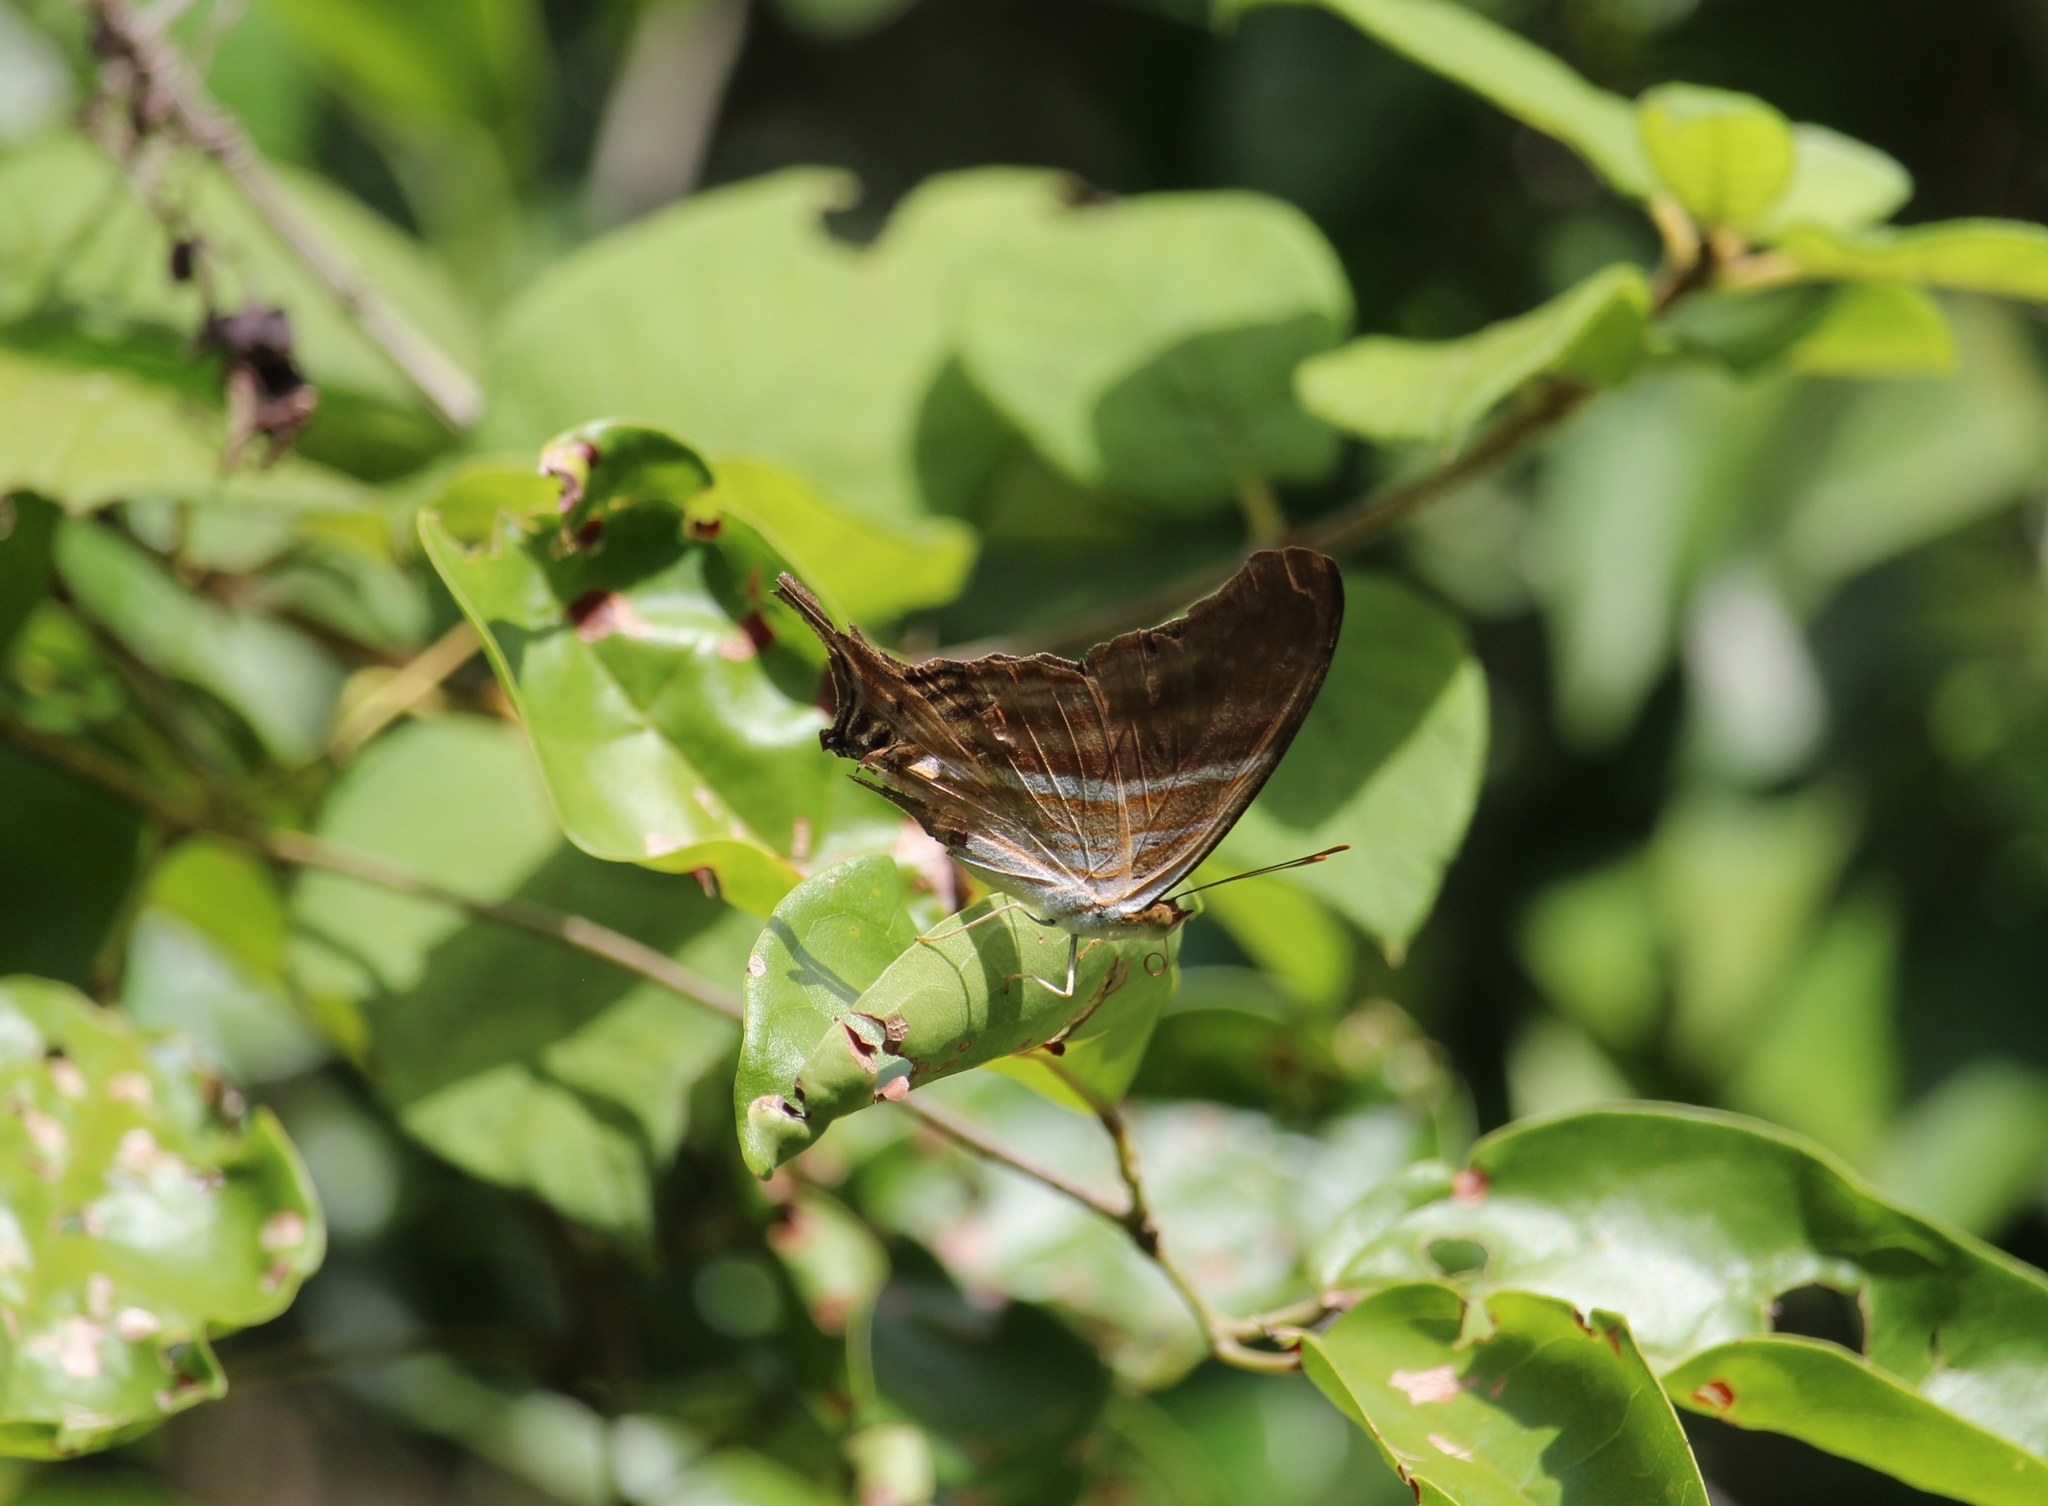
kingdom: Animalia
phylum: Arthropoda
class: Insecta
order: Lepidoptera
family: Nymphalidae
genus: Marpesia
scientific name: Marpesia chiron
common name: Many-banded daggerwing
